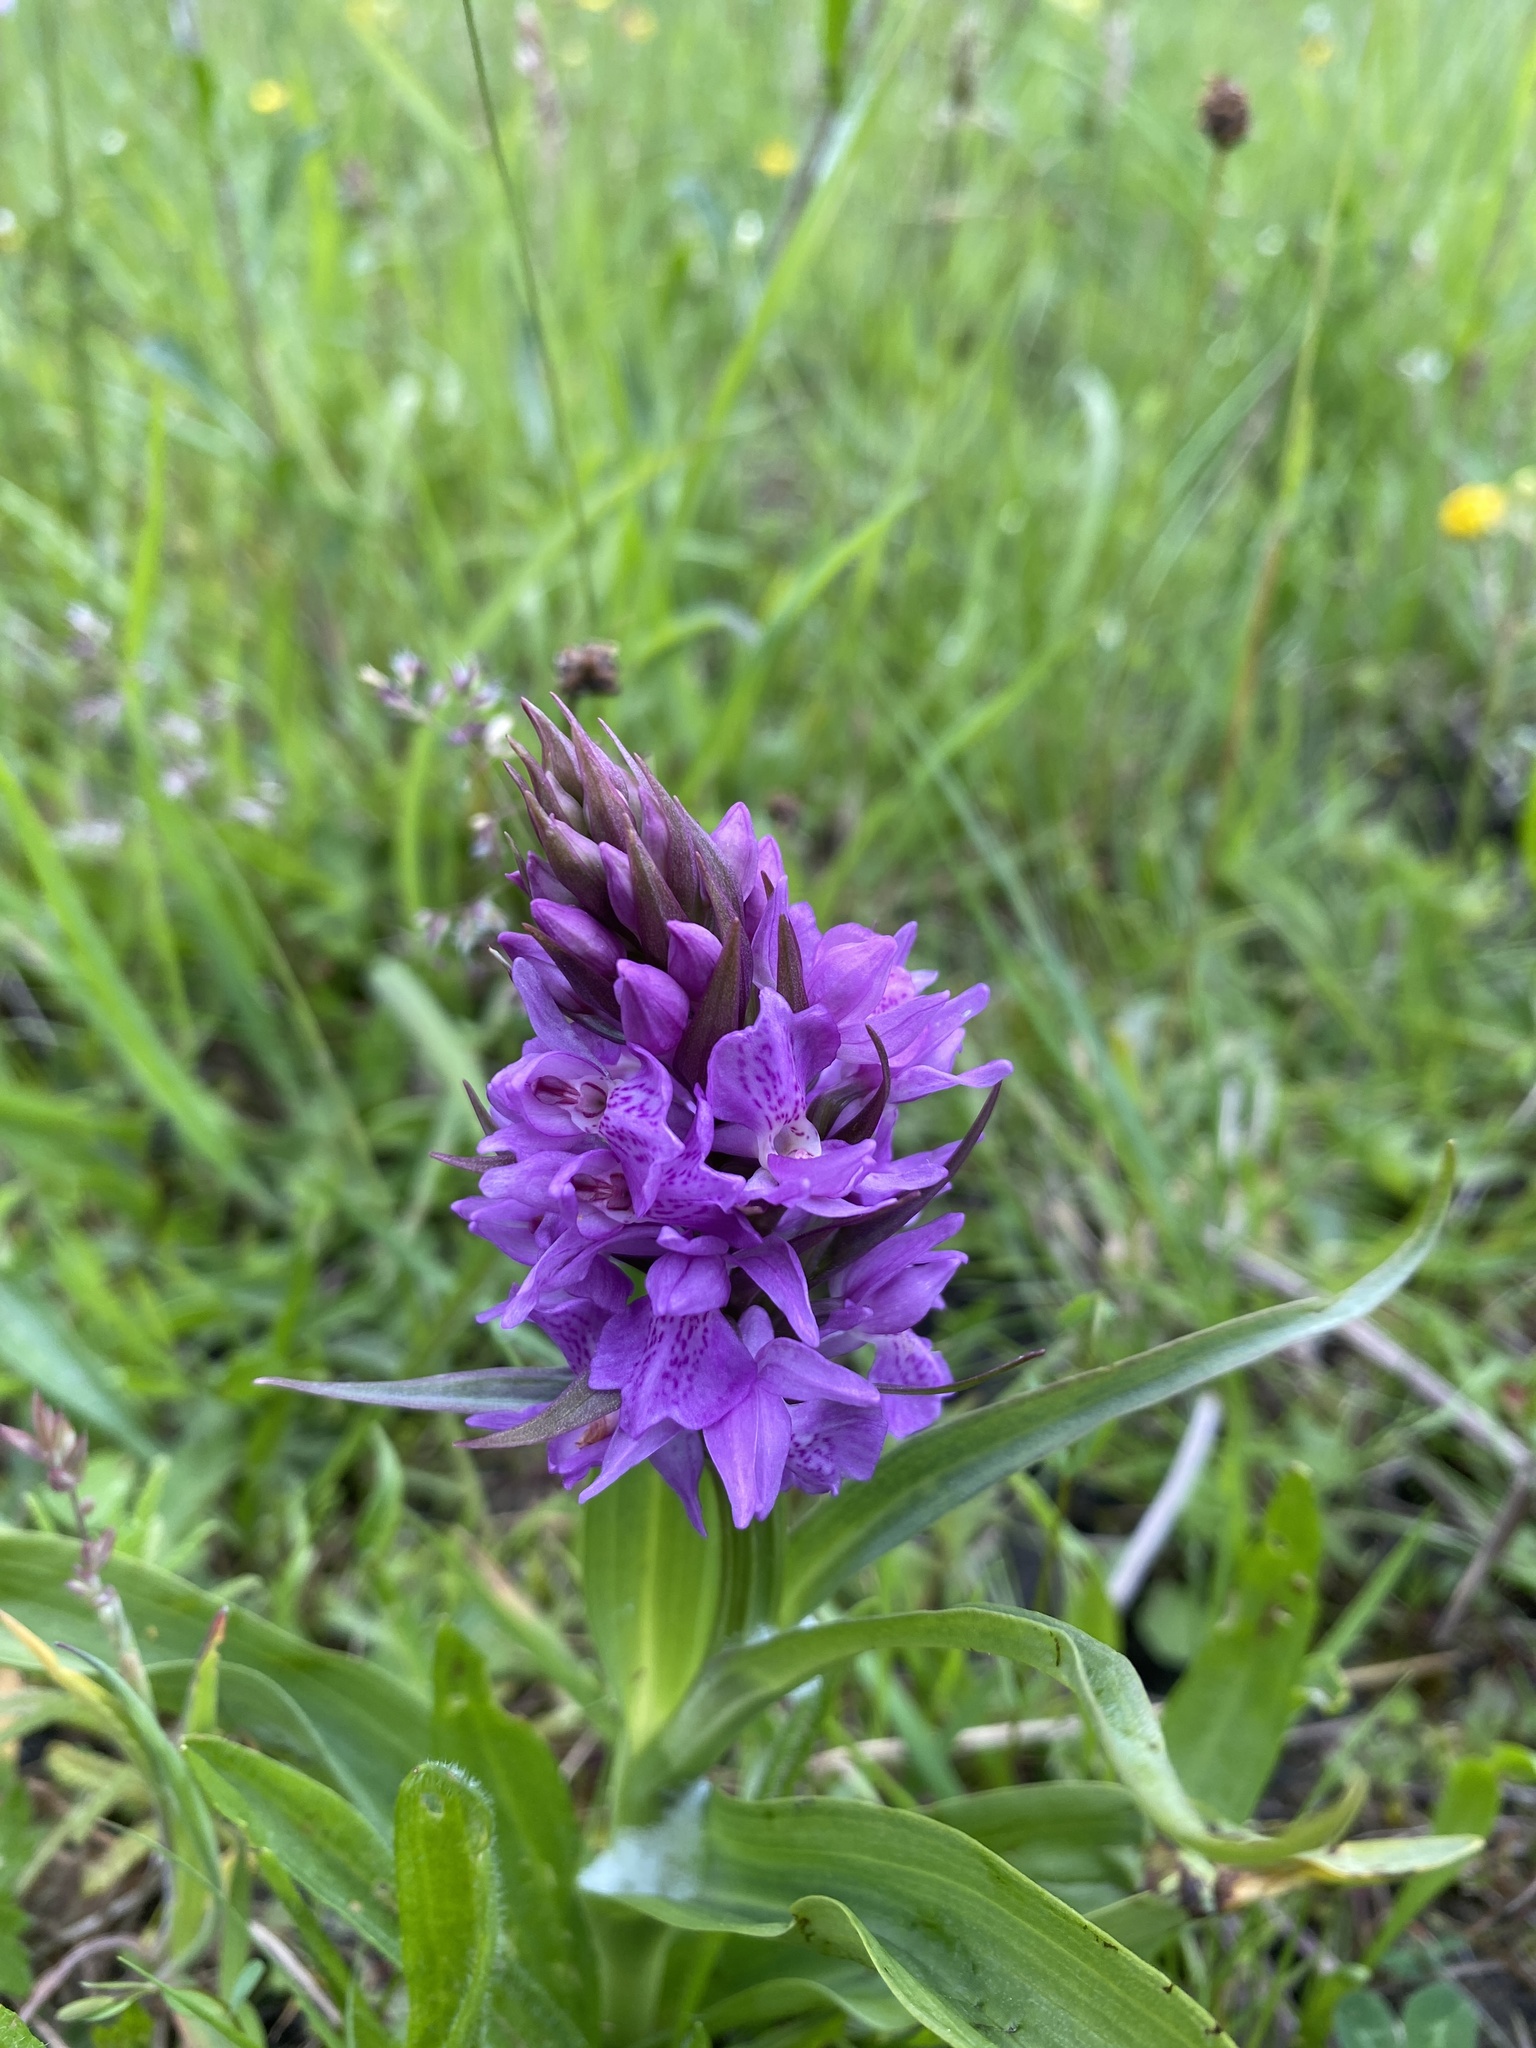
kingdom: Plantae
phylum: Tracheophyta
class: Liliopsida
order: Asparagales
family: Orchidaceae
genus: Dactylorhiza
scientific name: Dactylorhiza majalis
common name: Marsh orchid
